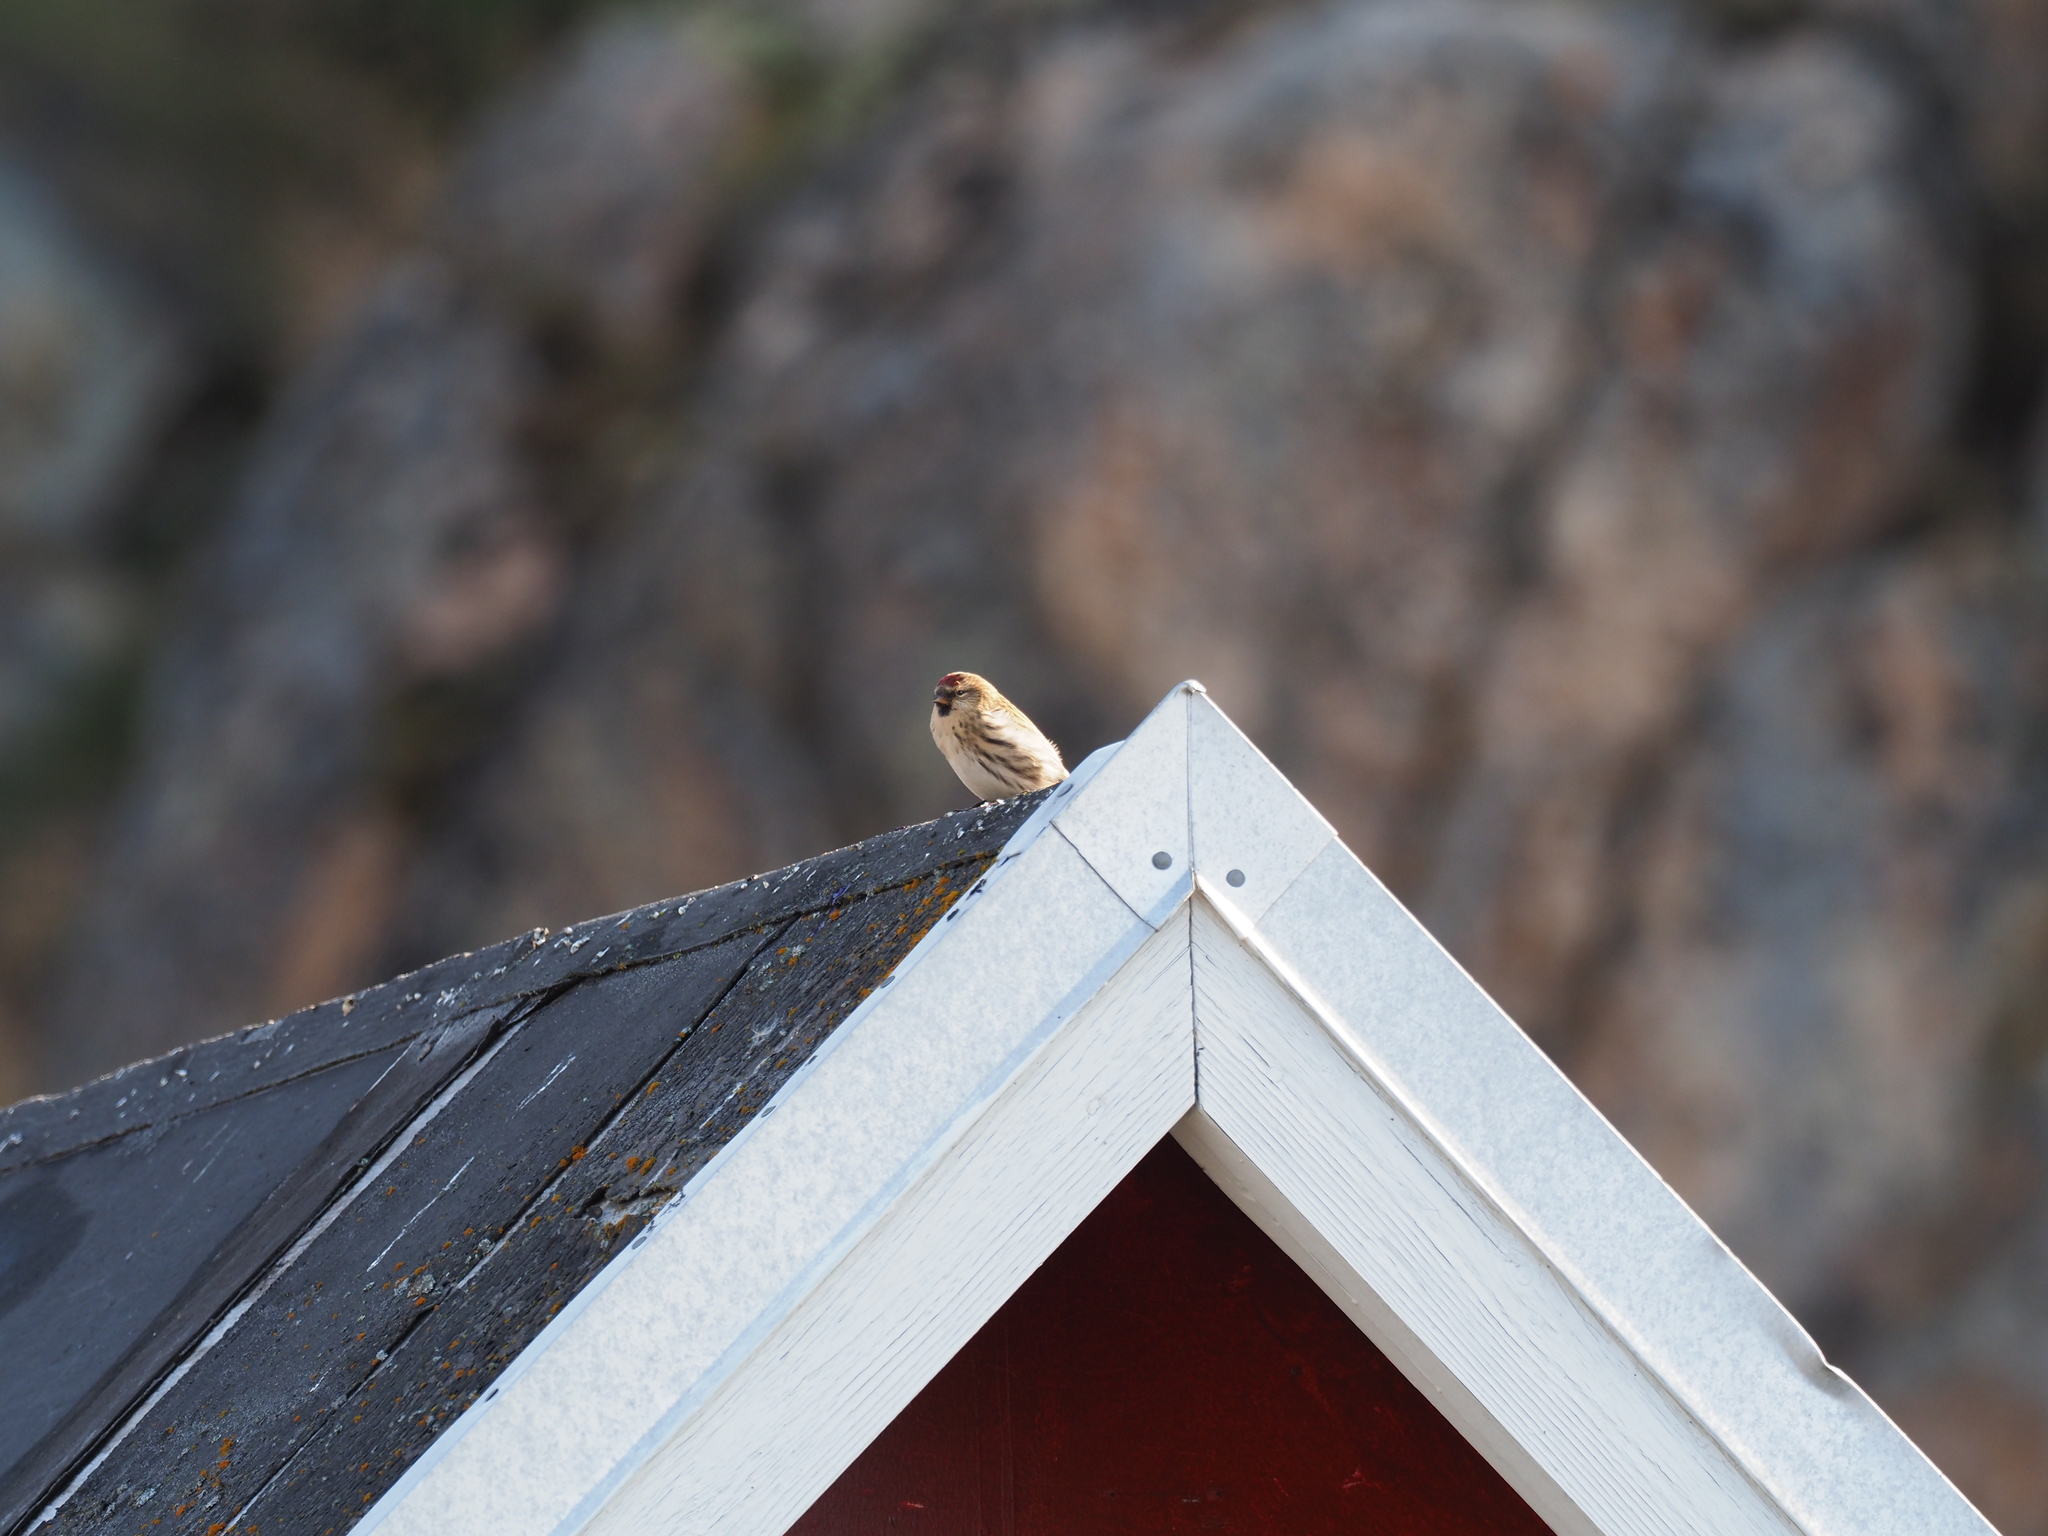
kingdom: Animalia
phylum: Chordata
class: Aves
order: Passeriformes
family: Fringillidae
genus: Acanthis
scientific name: Acanthis flammea
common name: Common redpoll
